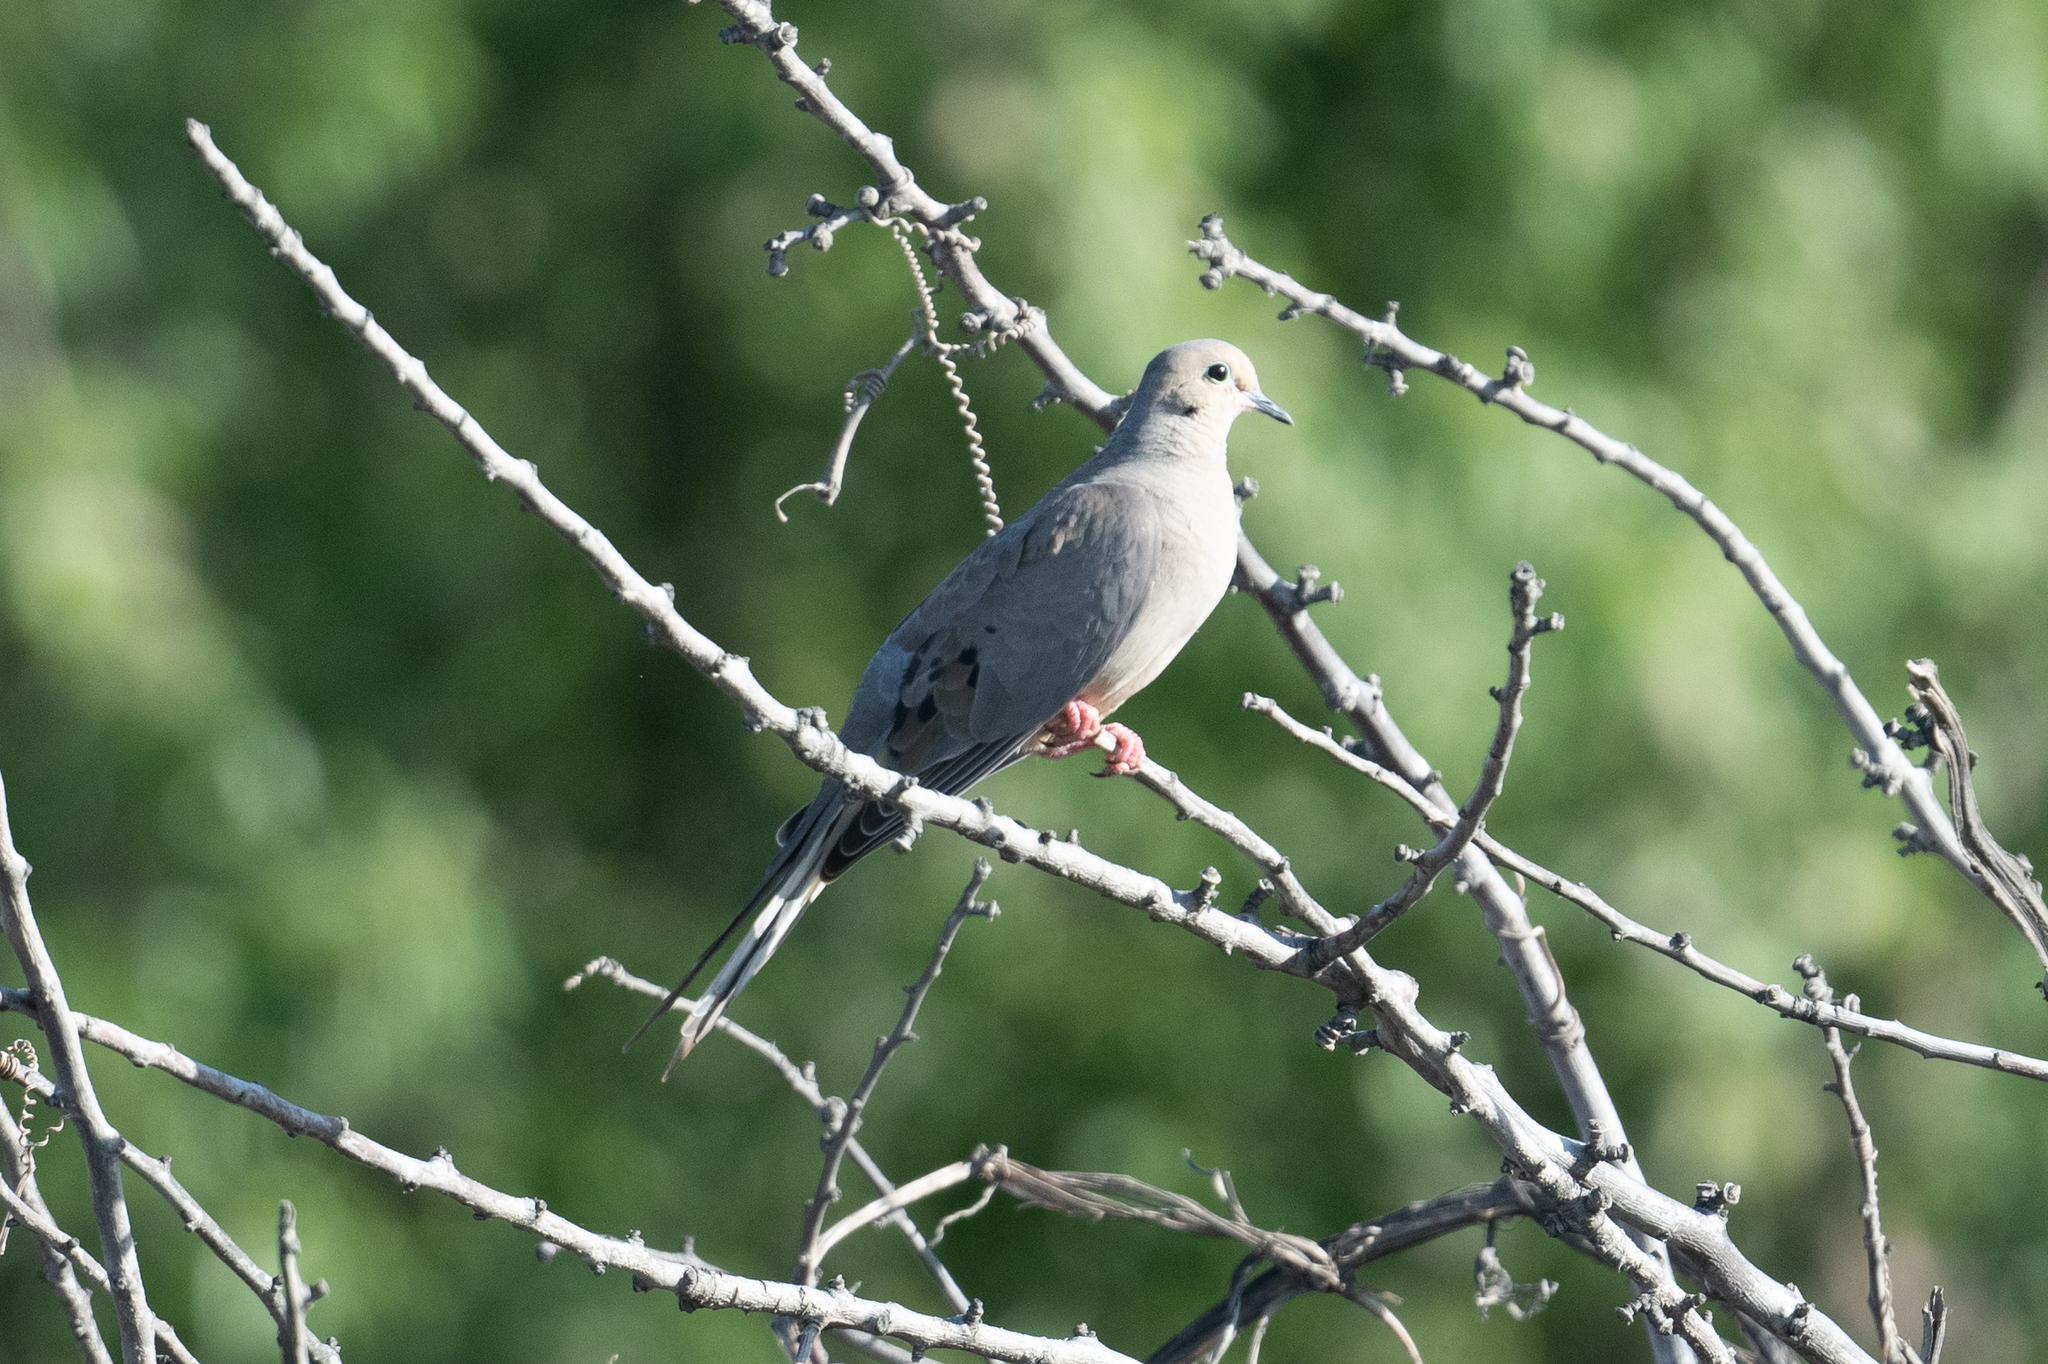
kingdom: Animalia
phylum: Chordata
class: Aves
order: Columbiformes
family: Columbidae
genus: Zenaida
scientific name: Zenaida macroura
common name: Mourning dove
